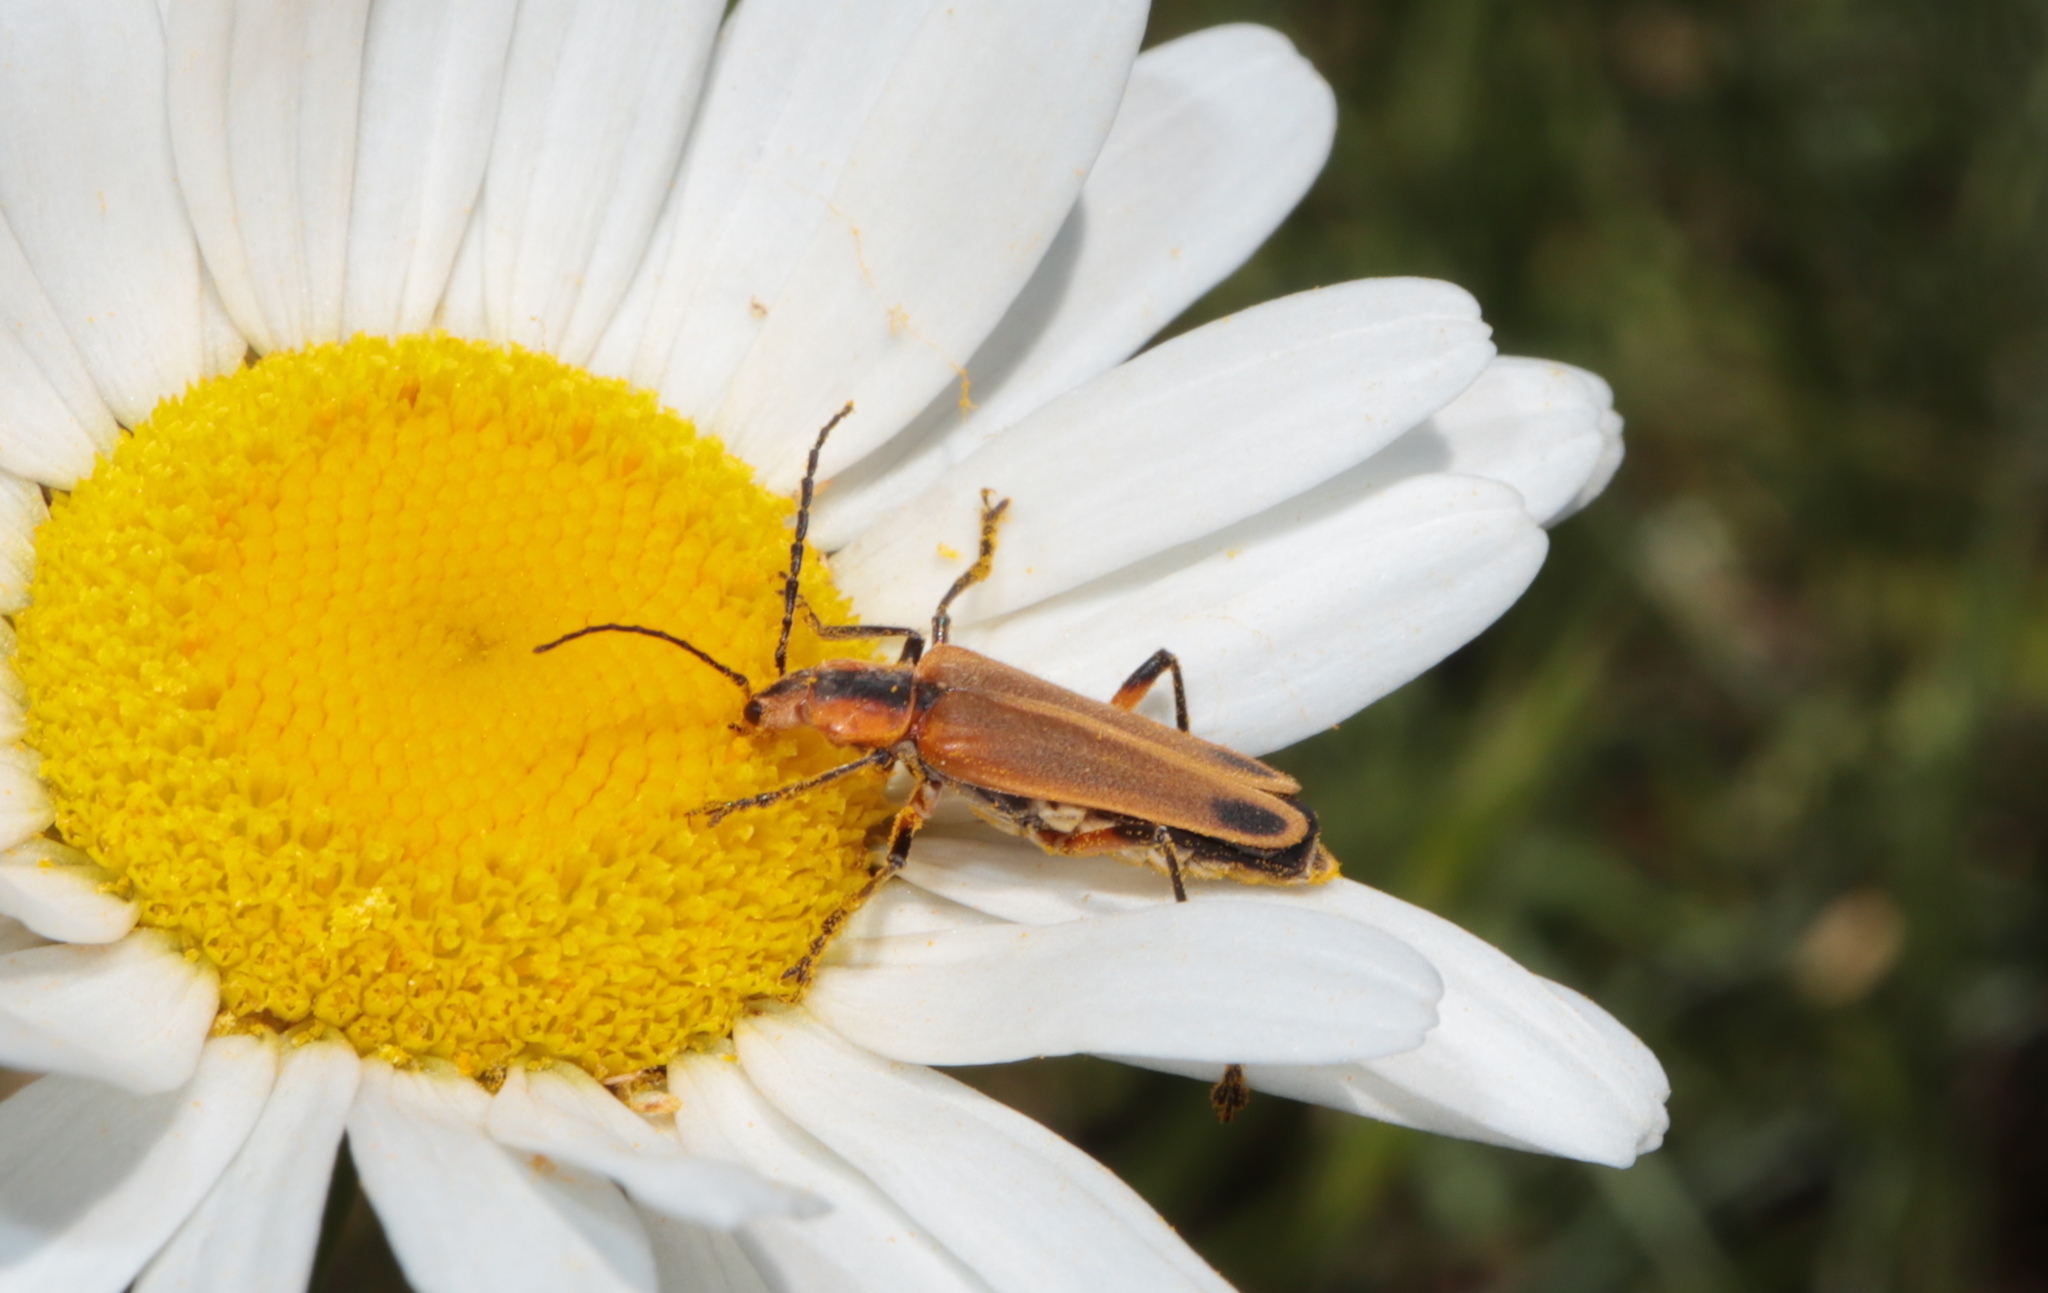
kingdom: Animalia
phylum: Arthropoda
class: Insecta
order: Coleoptera
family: Cantharidae
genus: Chauliognathus
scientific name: Chauliognathus marginatus
